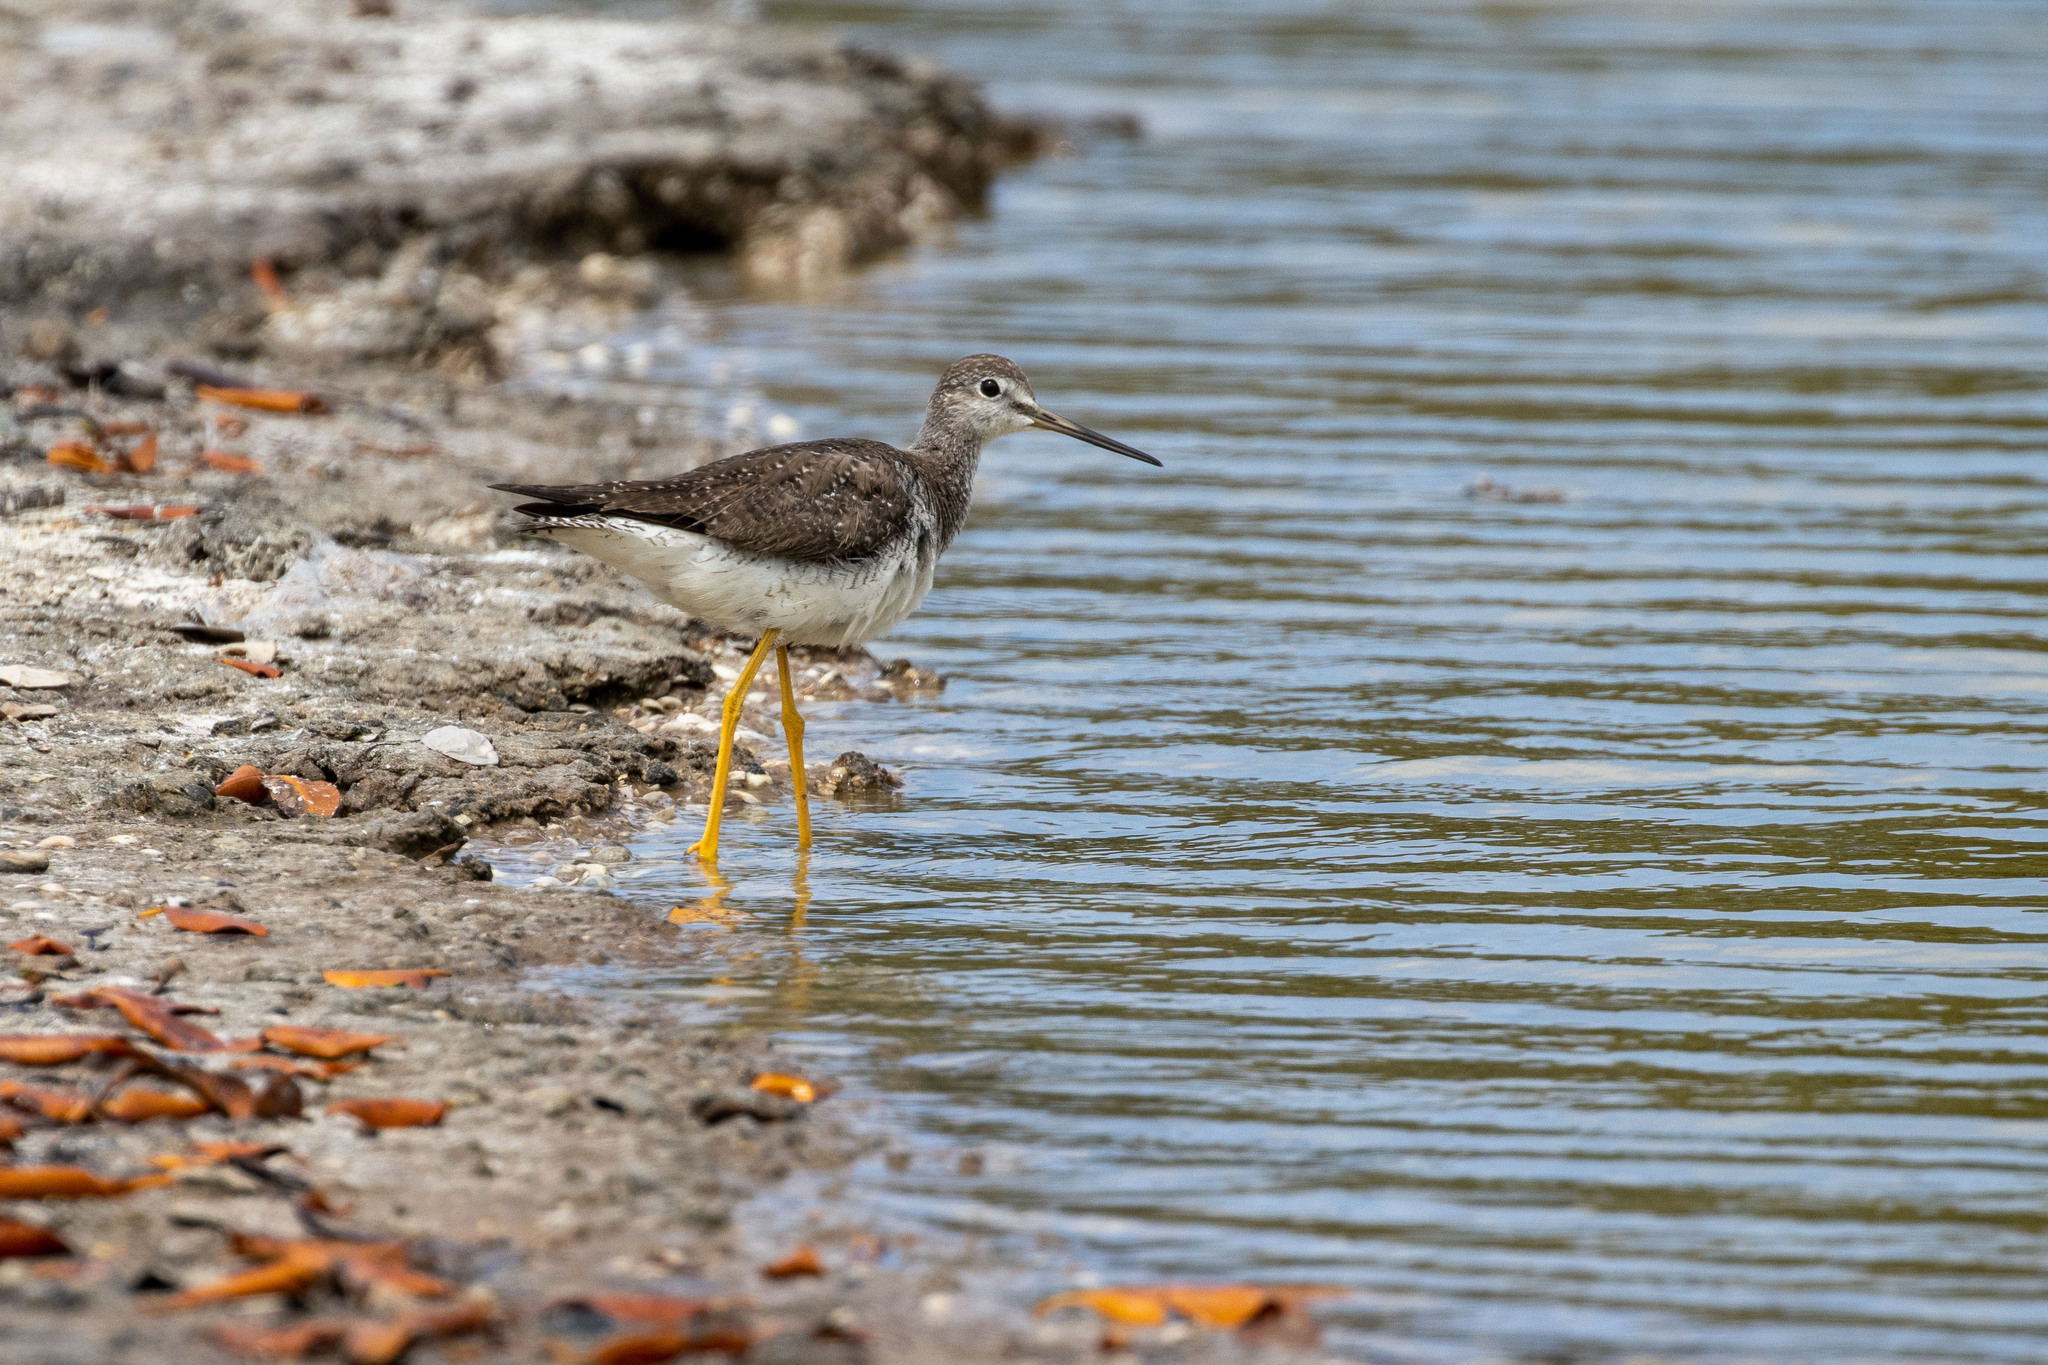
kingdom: Animalia
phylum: Chordata
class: Aves
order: Charadriiformes
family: Scolopacidae
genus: Tringa
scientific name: Tringa melanoleuca
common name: Greater yellowlegs
